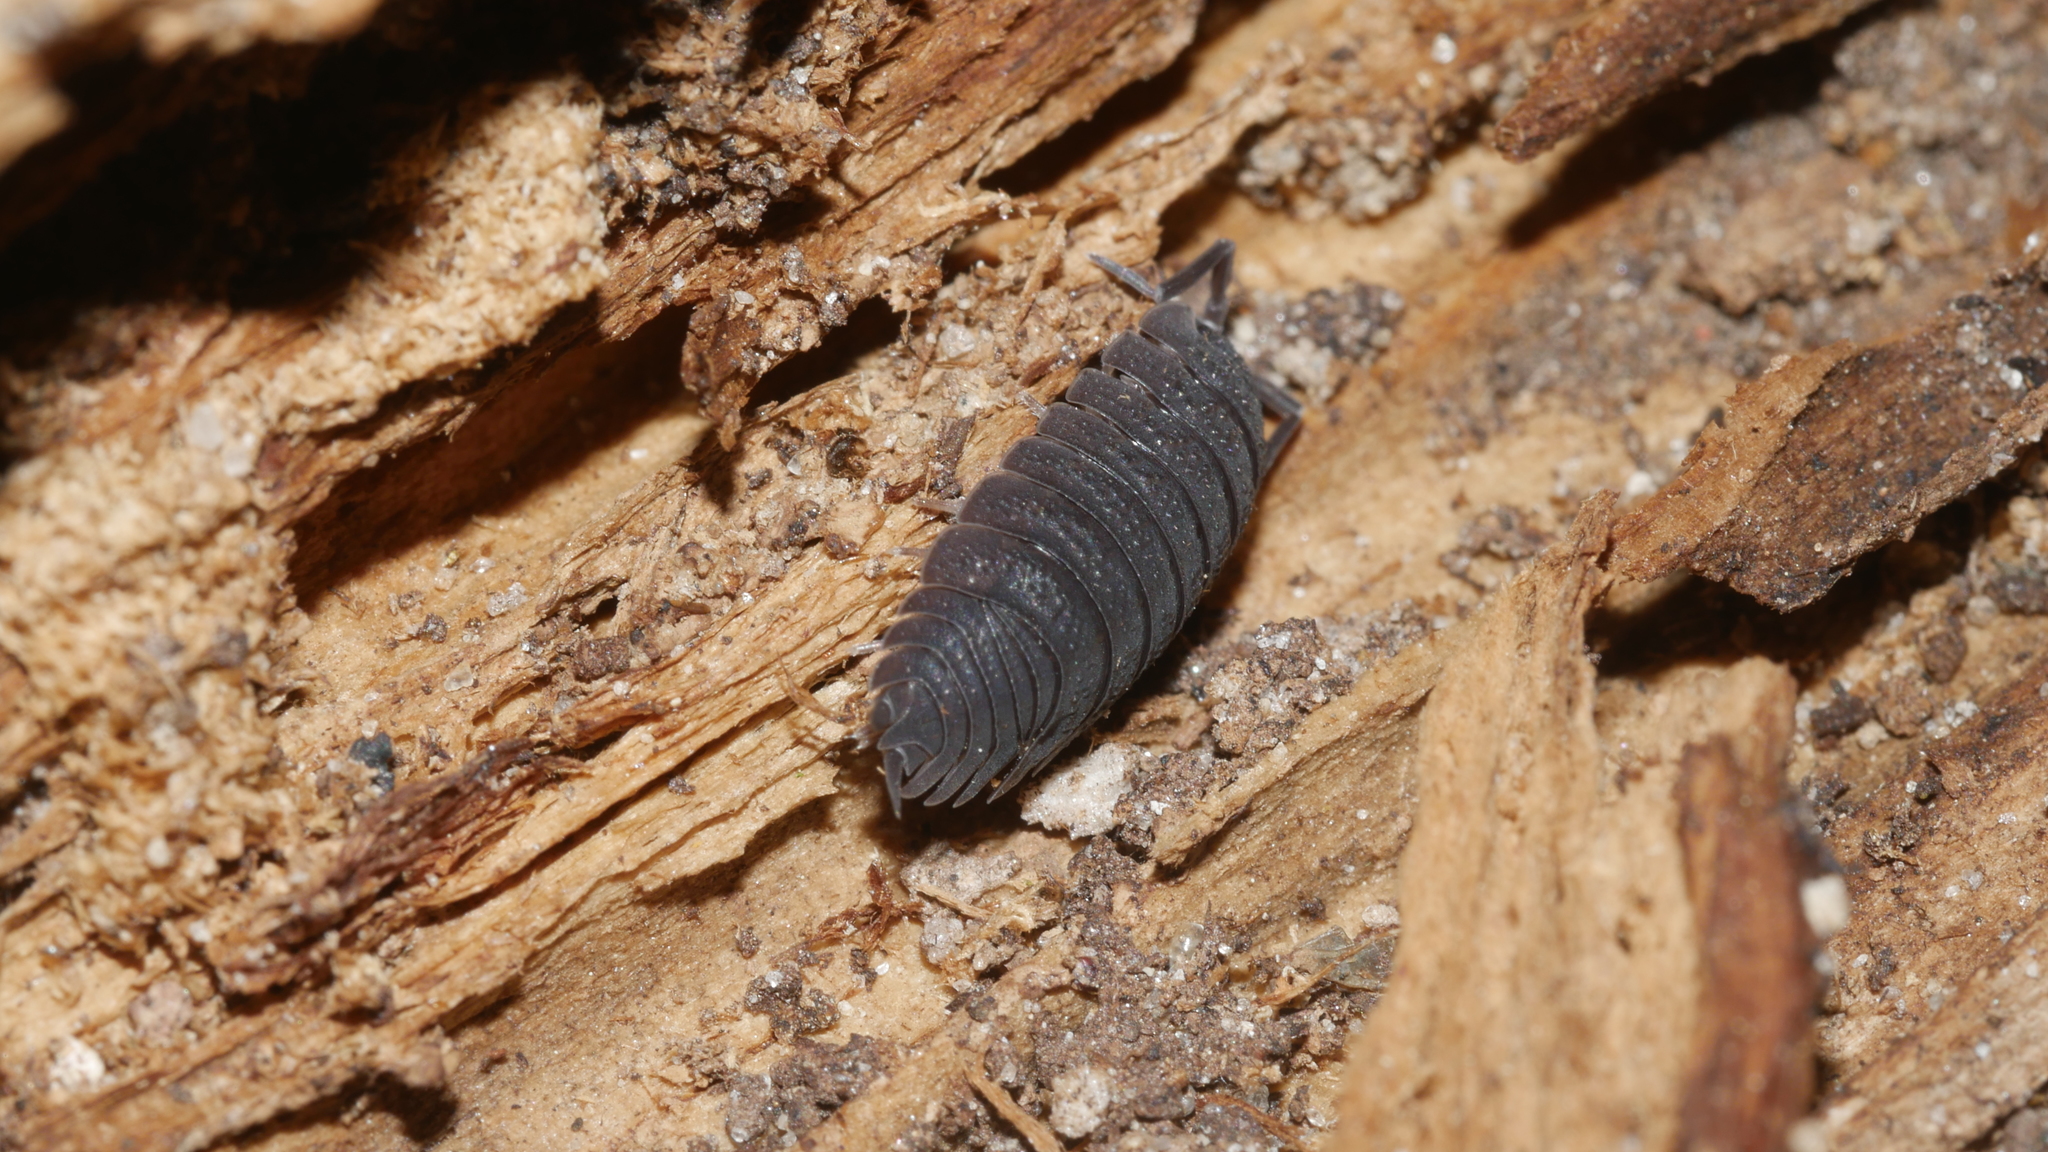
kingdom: Animalia
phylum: Arthropoda
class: Malacostraca
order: Isopoda
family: Porcellionidae
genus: Porcellio
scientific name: Porcellio scaber
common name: Common rough woodlouse
